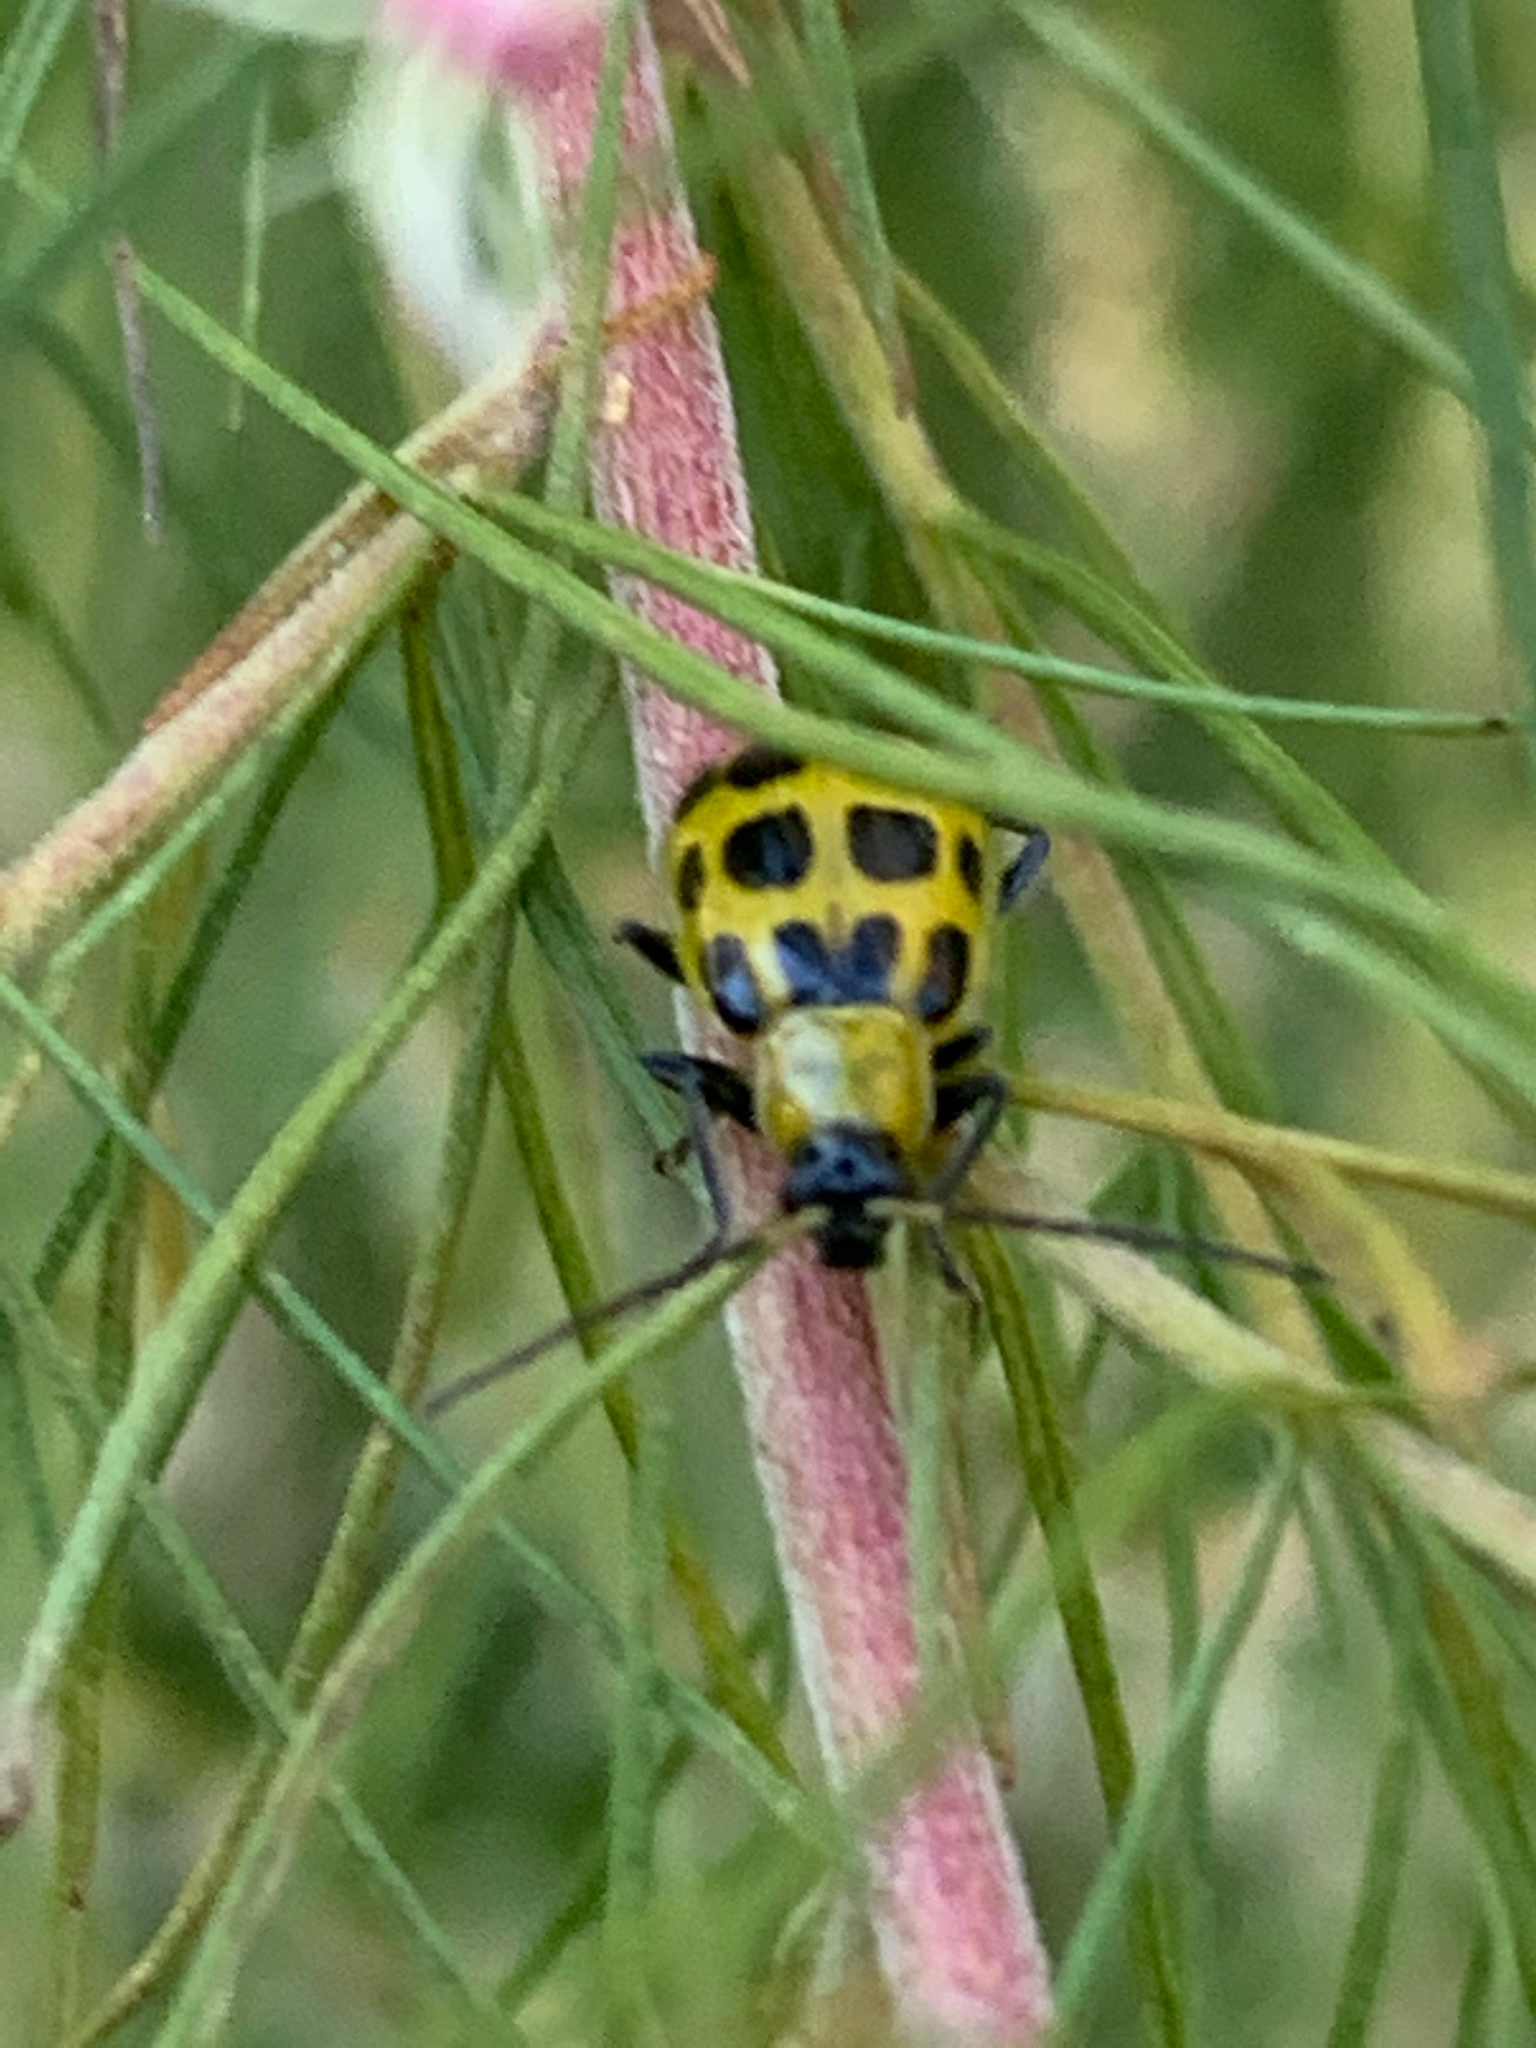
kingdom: Animalia
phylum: Arthropoda
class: Insecta
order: Coleoptera
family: Chrysomelidae
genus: Diabrotica
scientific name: Diabrotica undecimpunctata
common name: Spotted cucumber beetle
